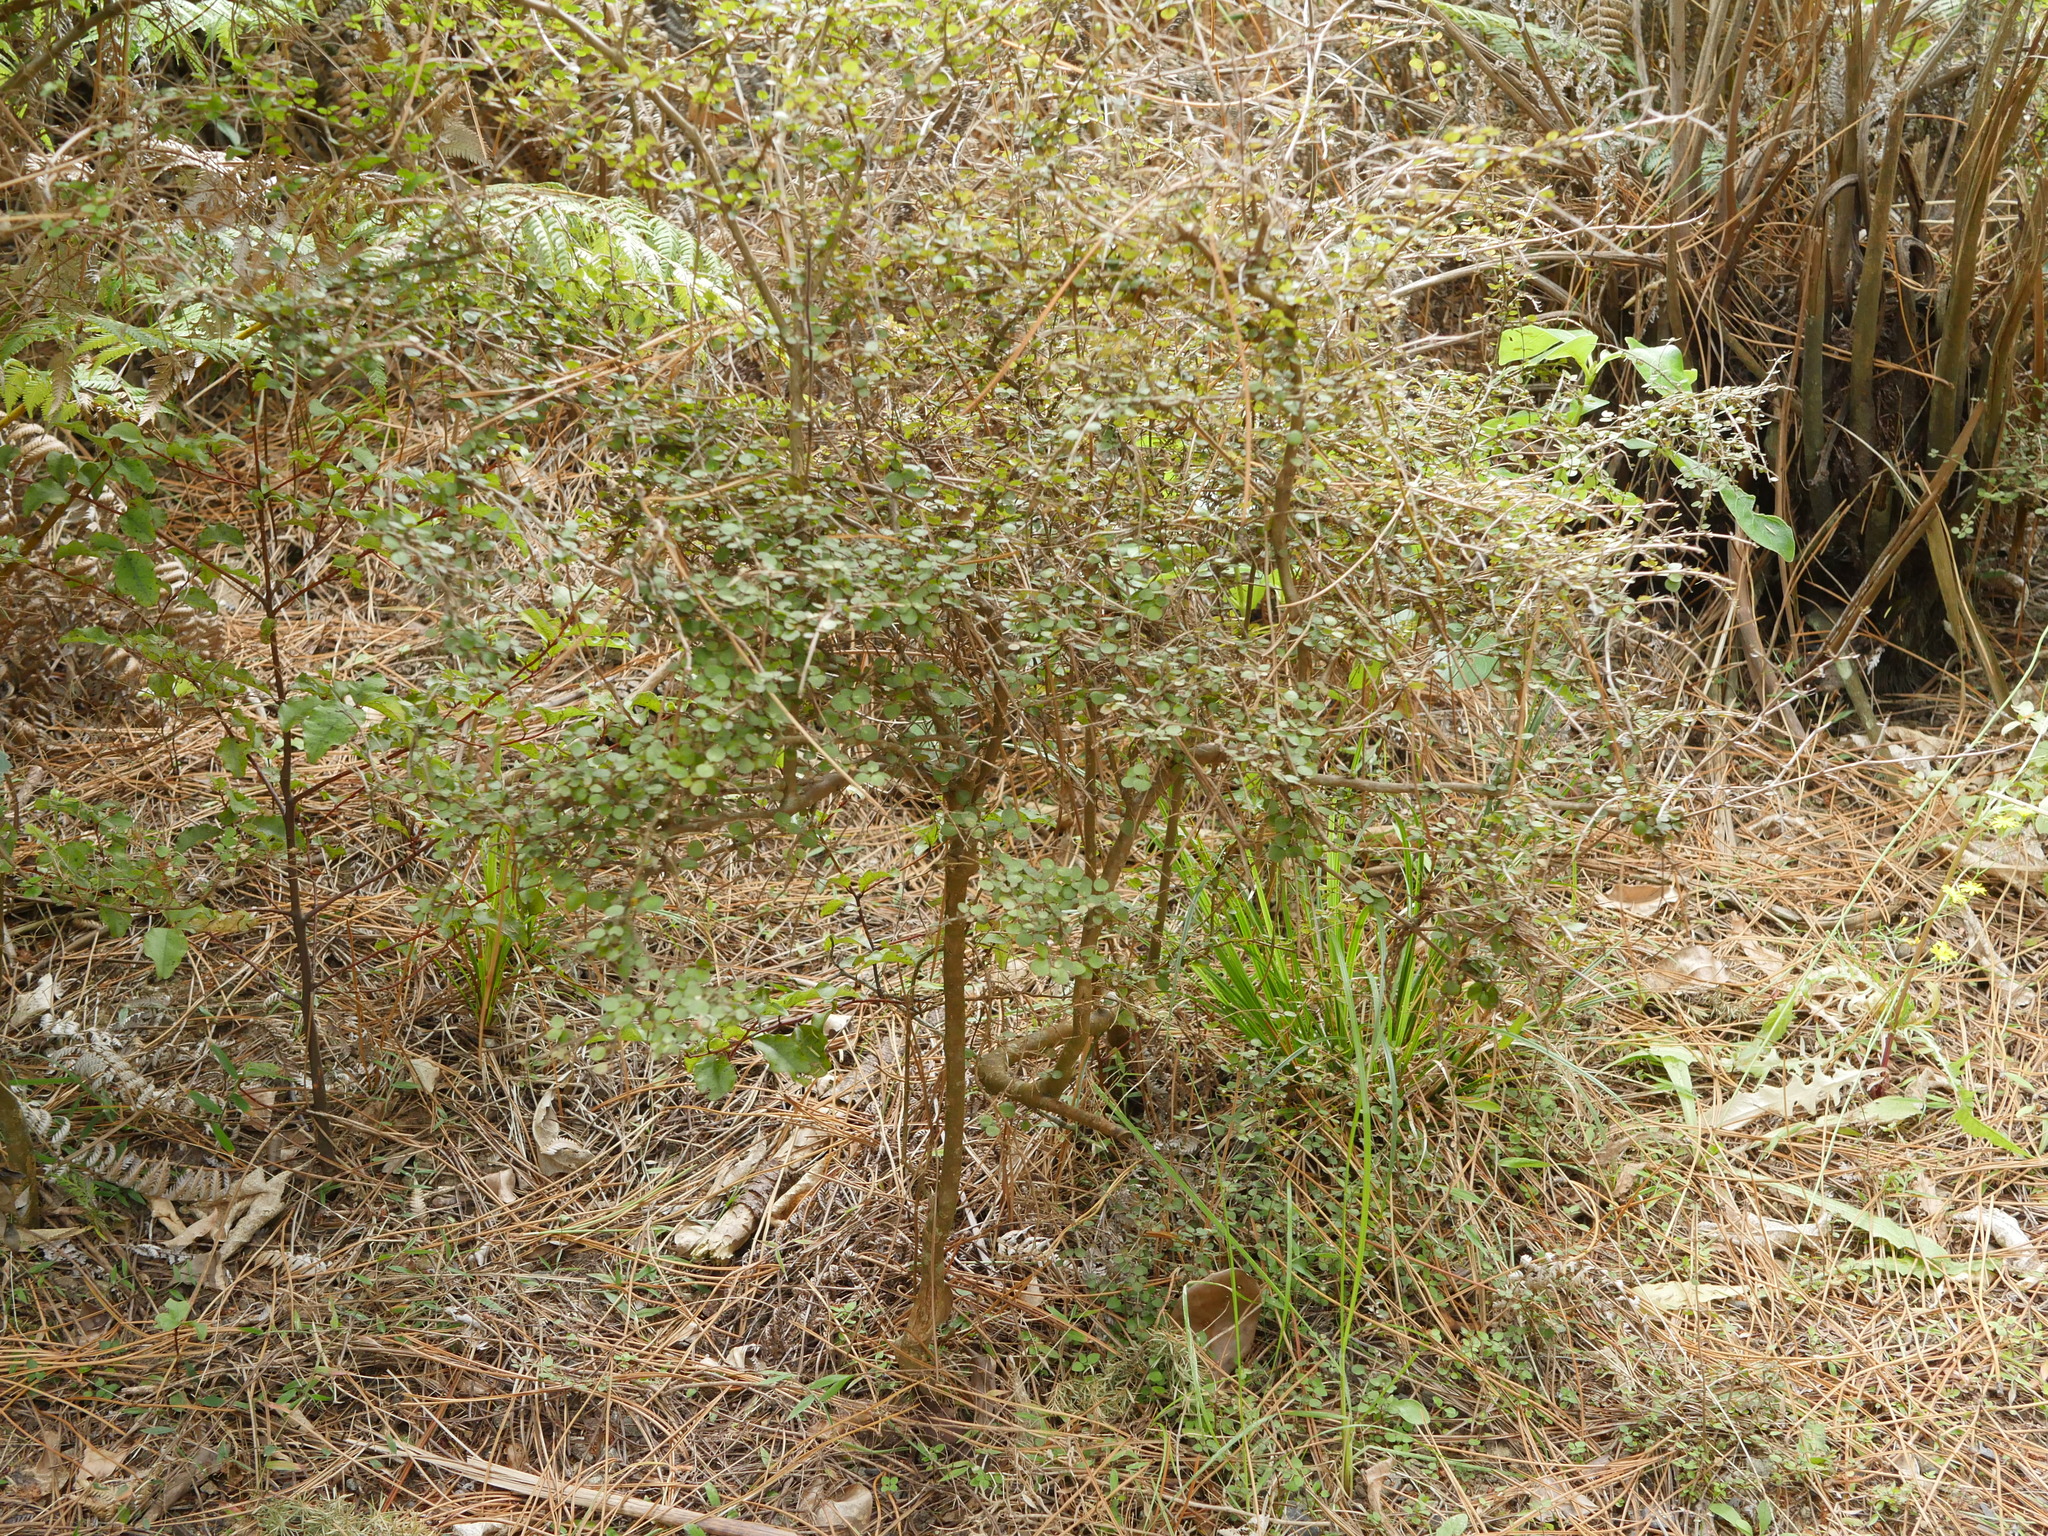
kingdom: Plantae
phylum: Tracheophyta
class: Magnoliopsida
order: Gentianales
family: Rubiaceae
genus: Coprosma
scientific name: Coprosma rhamnoides
